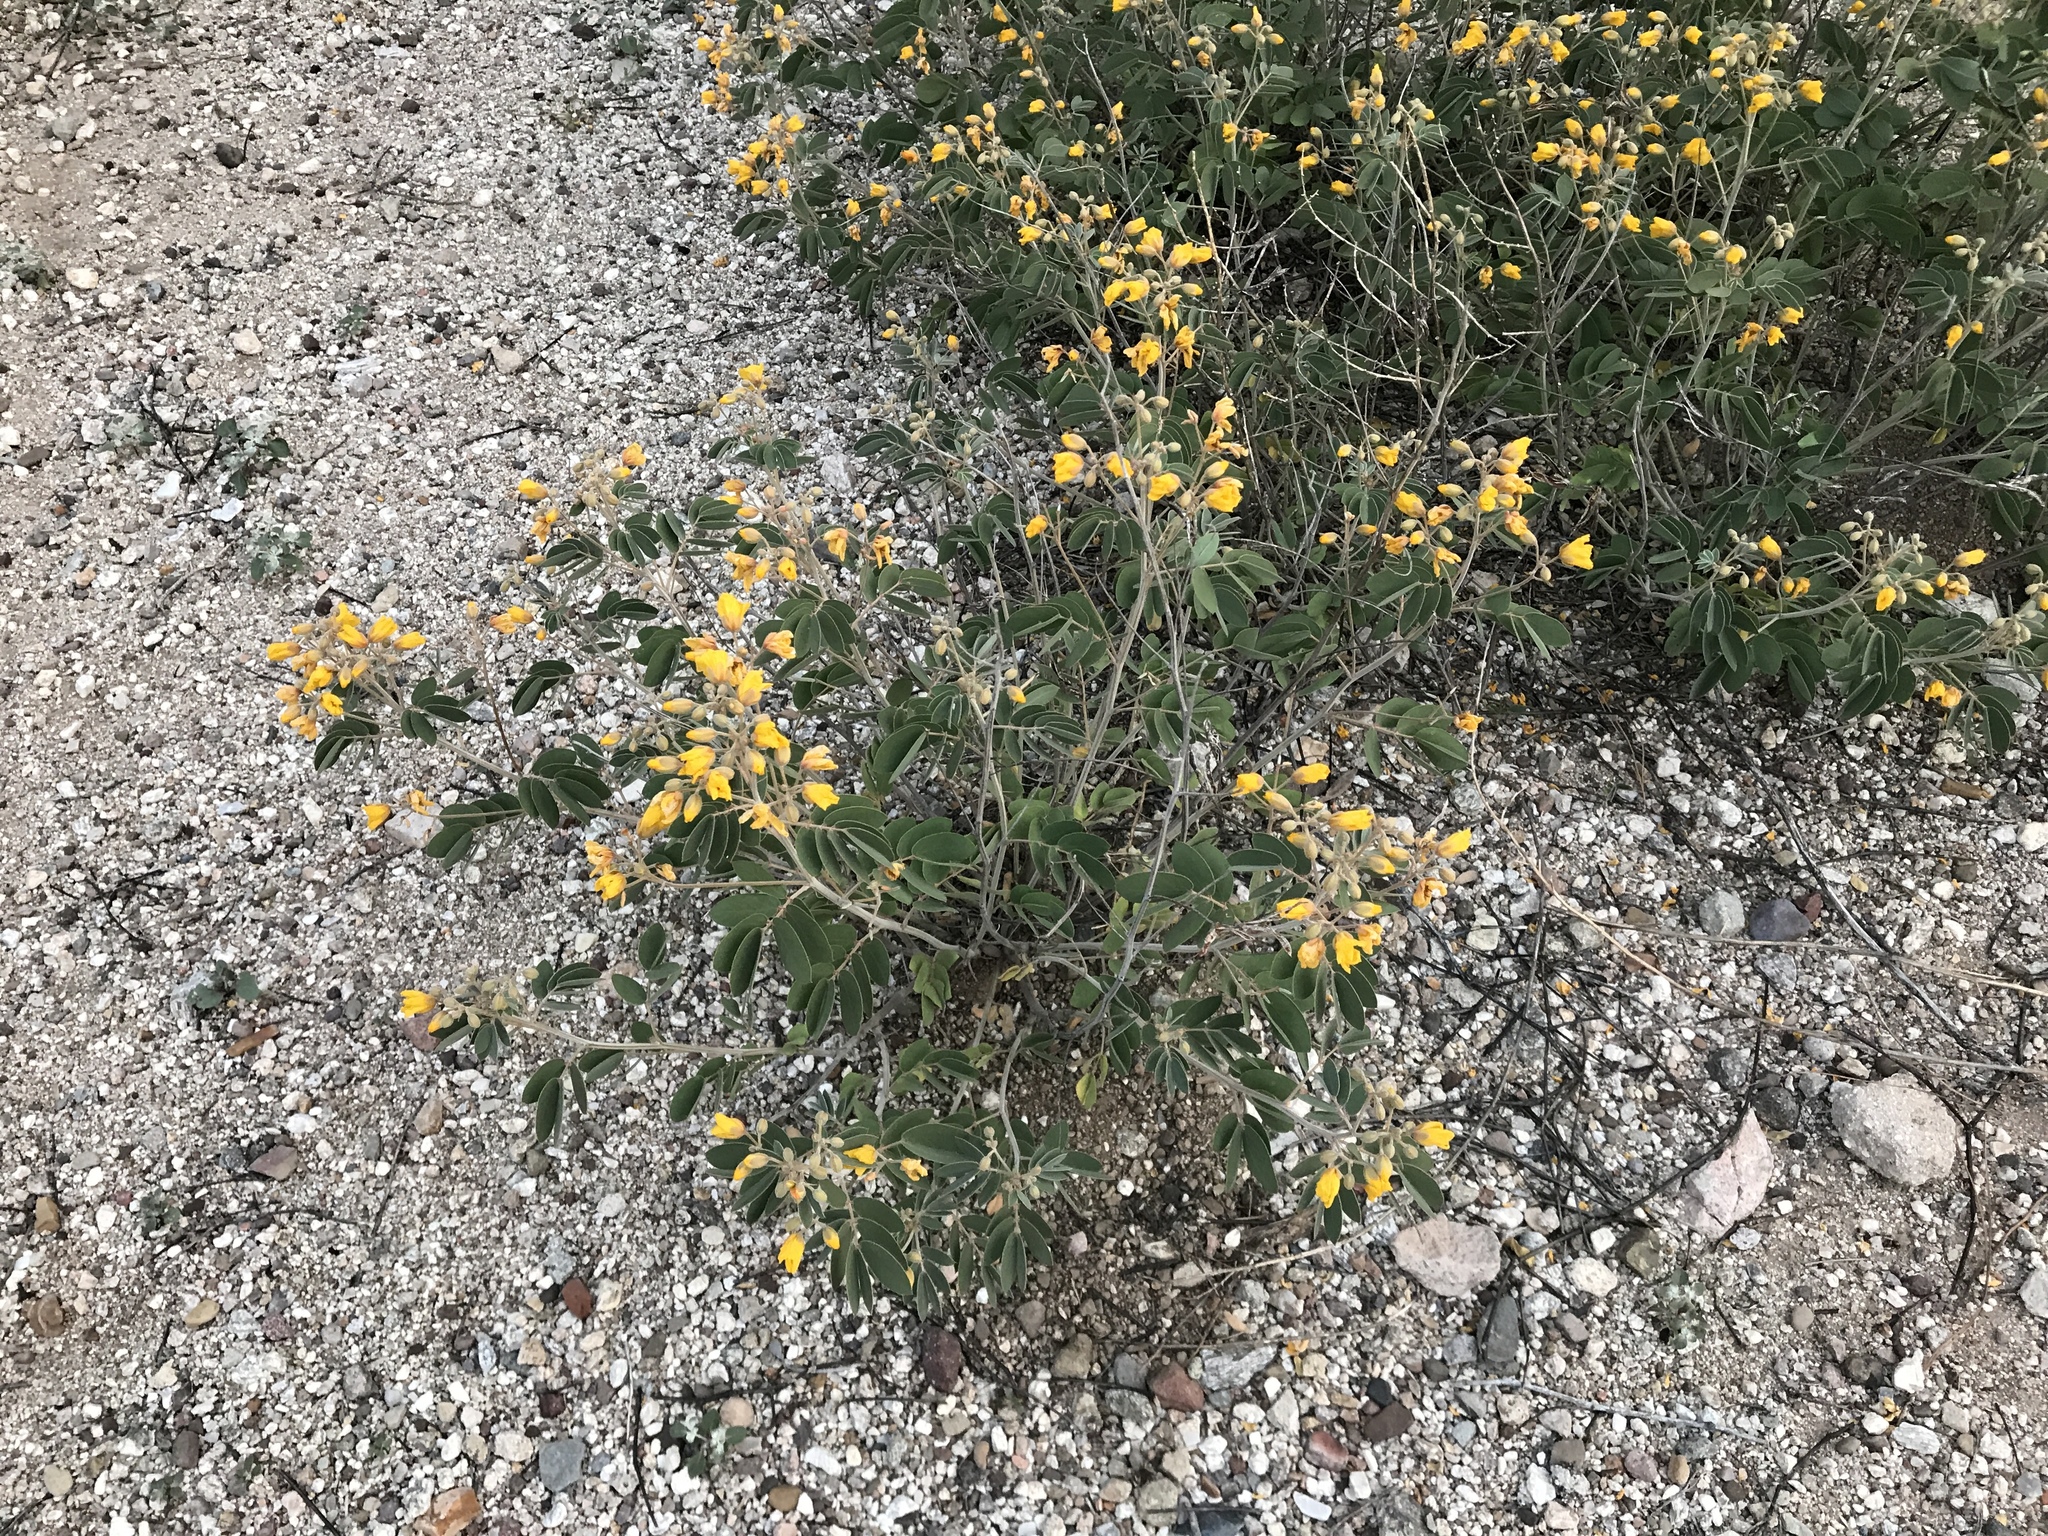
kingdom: Plantae
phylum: Tracheophyta
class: Magnoliopsida
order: Fabales
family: Fabaceae
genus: Senna
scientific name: Senna covesii
